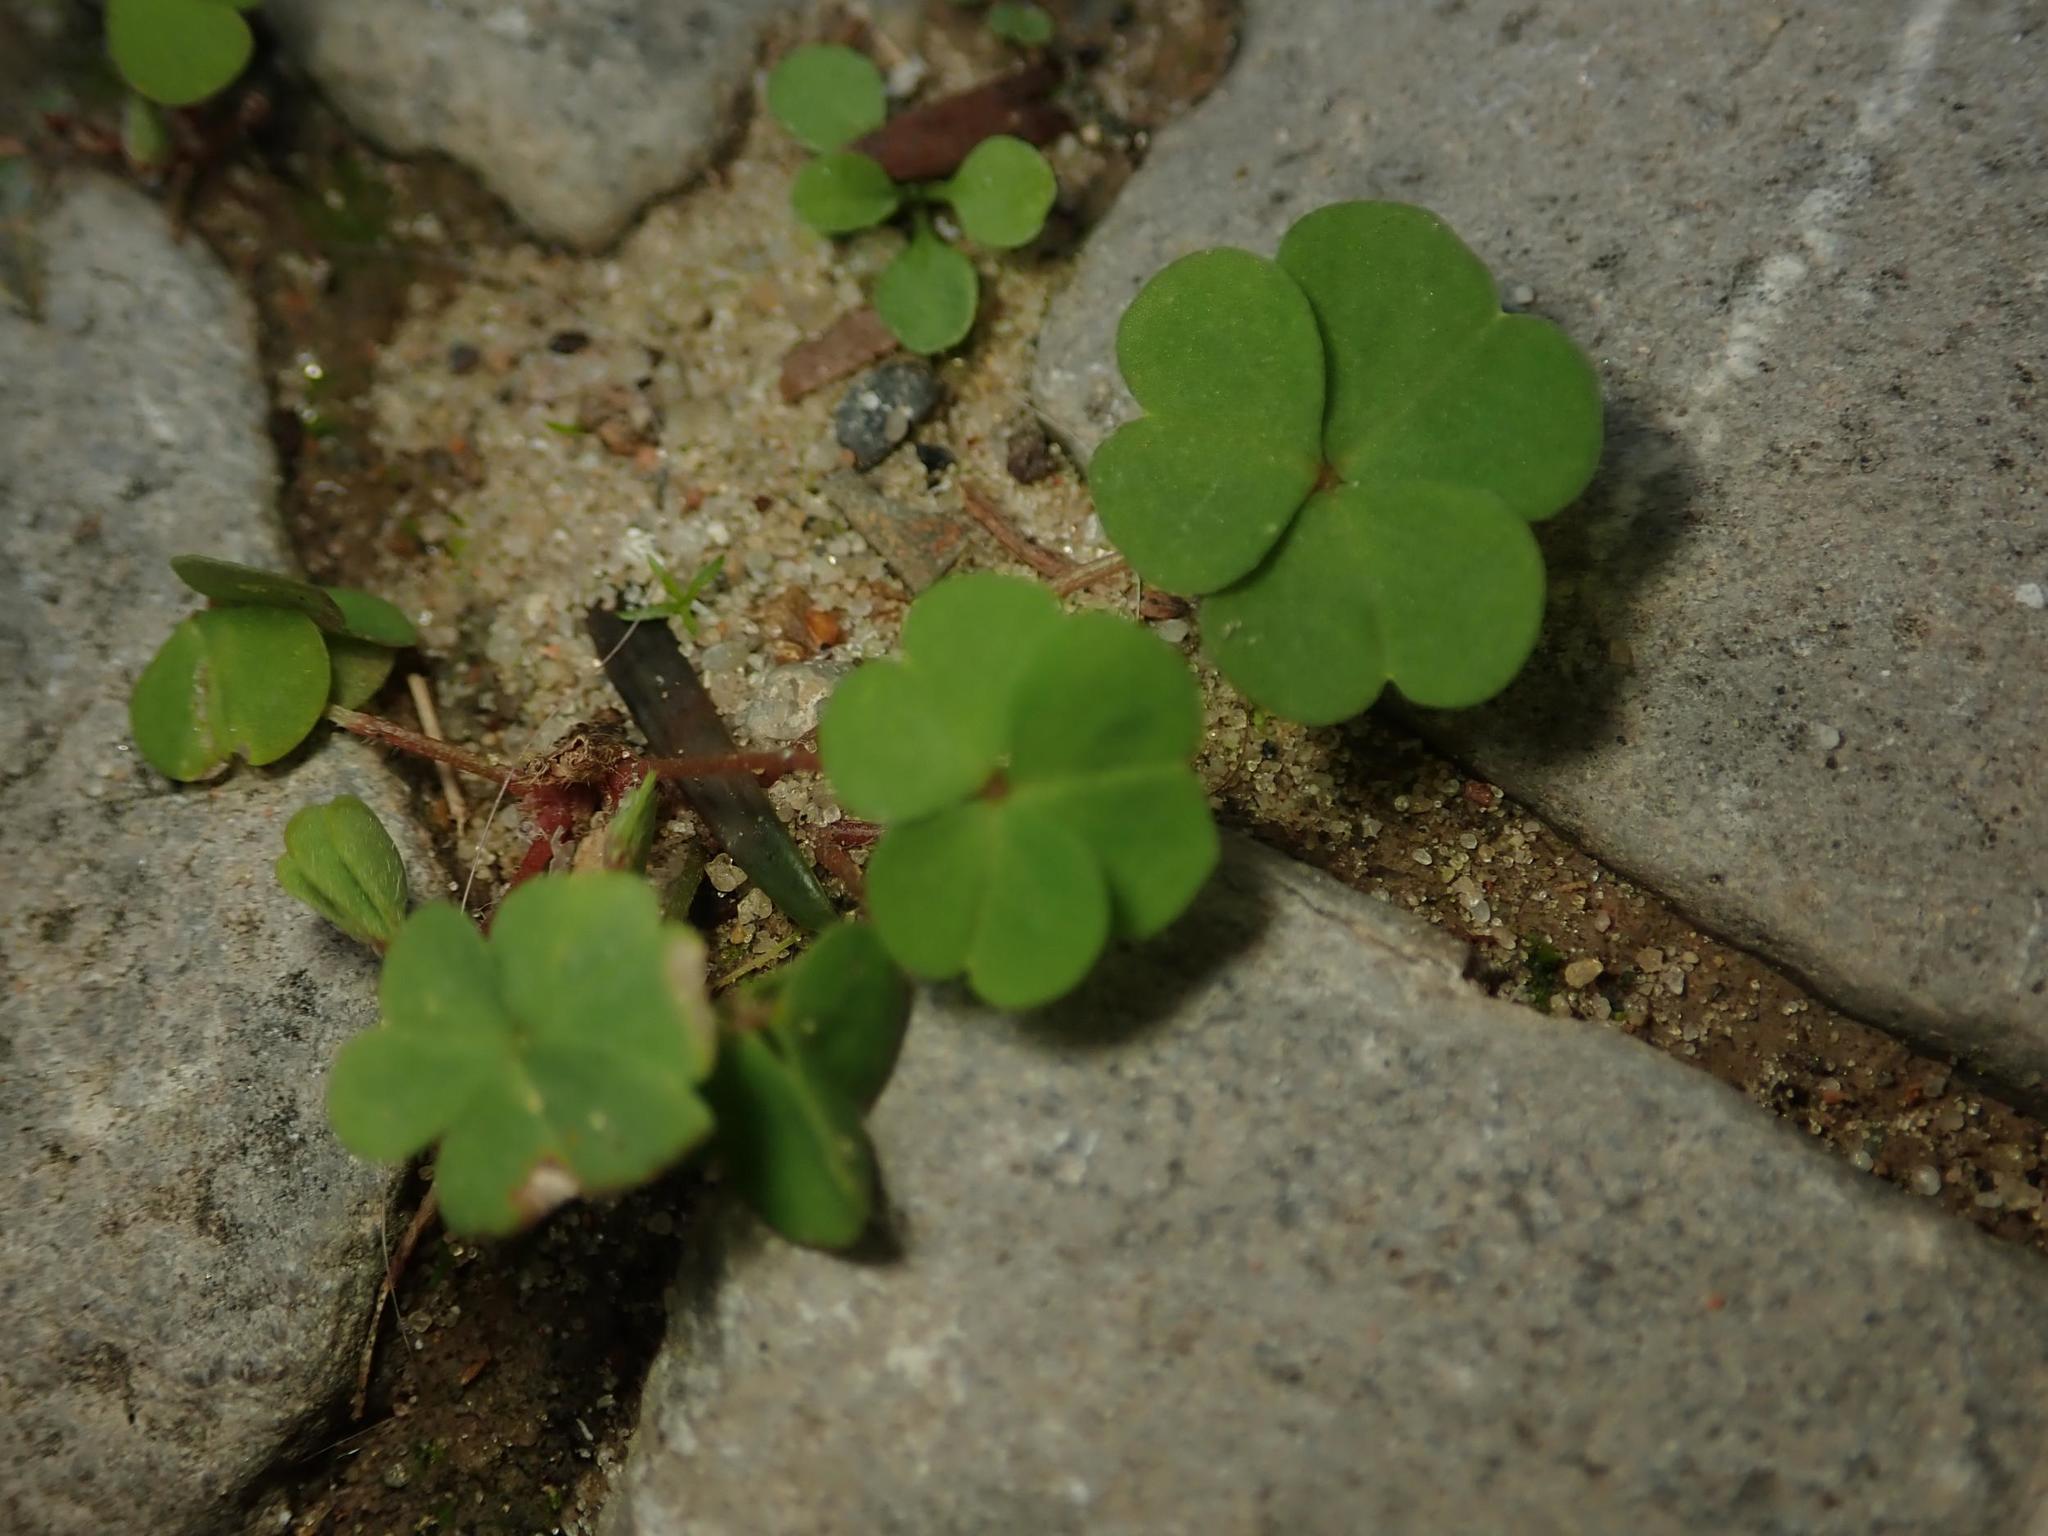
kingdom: Plantae
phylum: Tracheophyta
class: Magnoliopsida
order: Oxalidales
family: Oxalidaceae
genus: Oxalis
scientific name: Oxalis corniculata
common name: Procumbent yellow-sorrel
